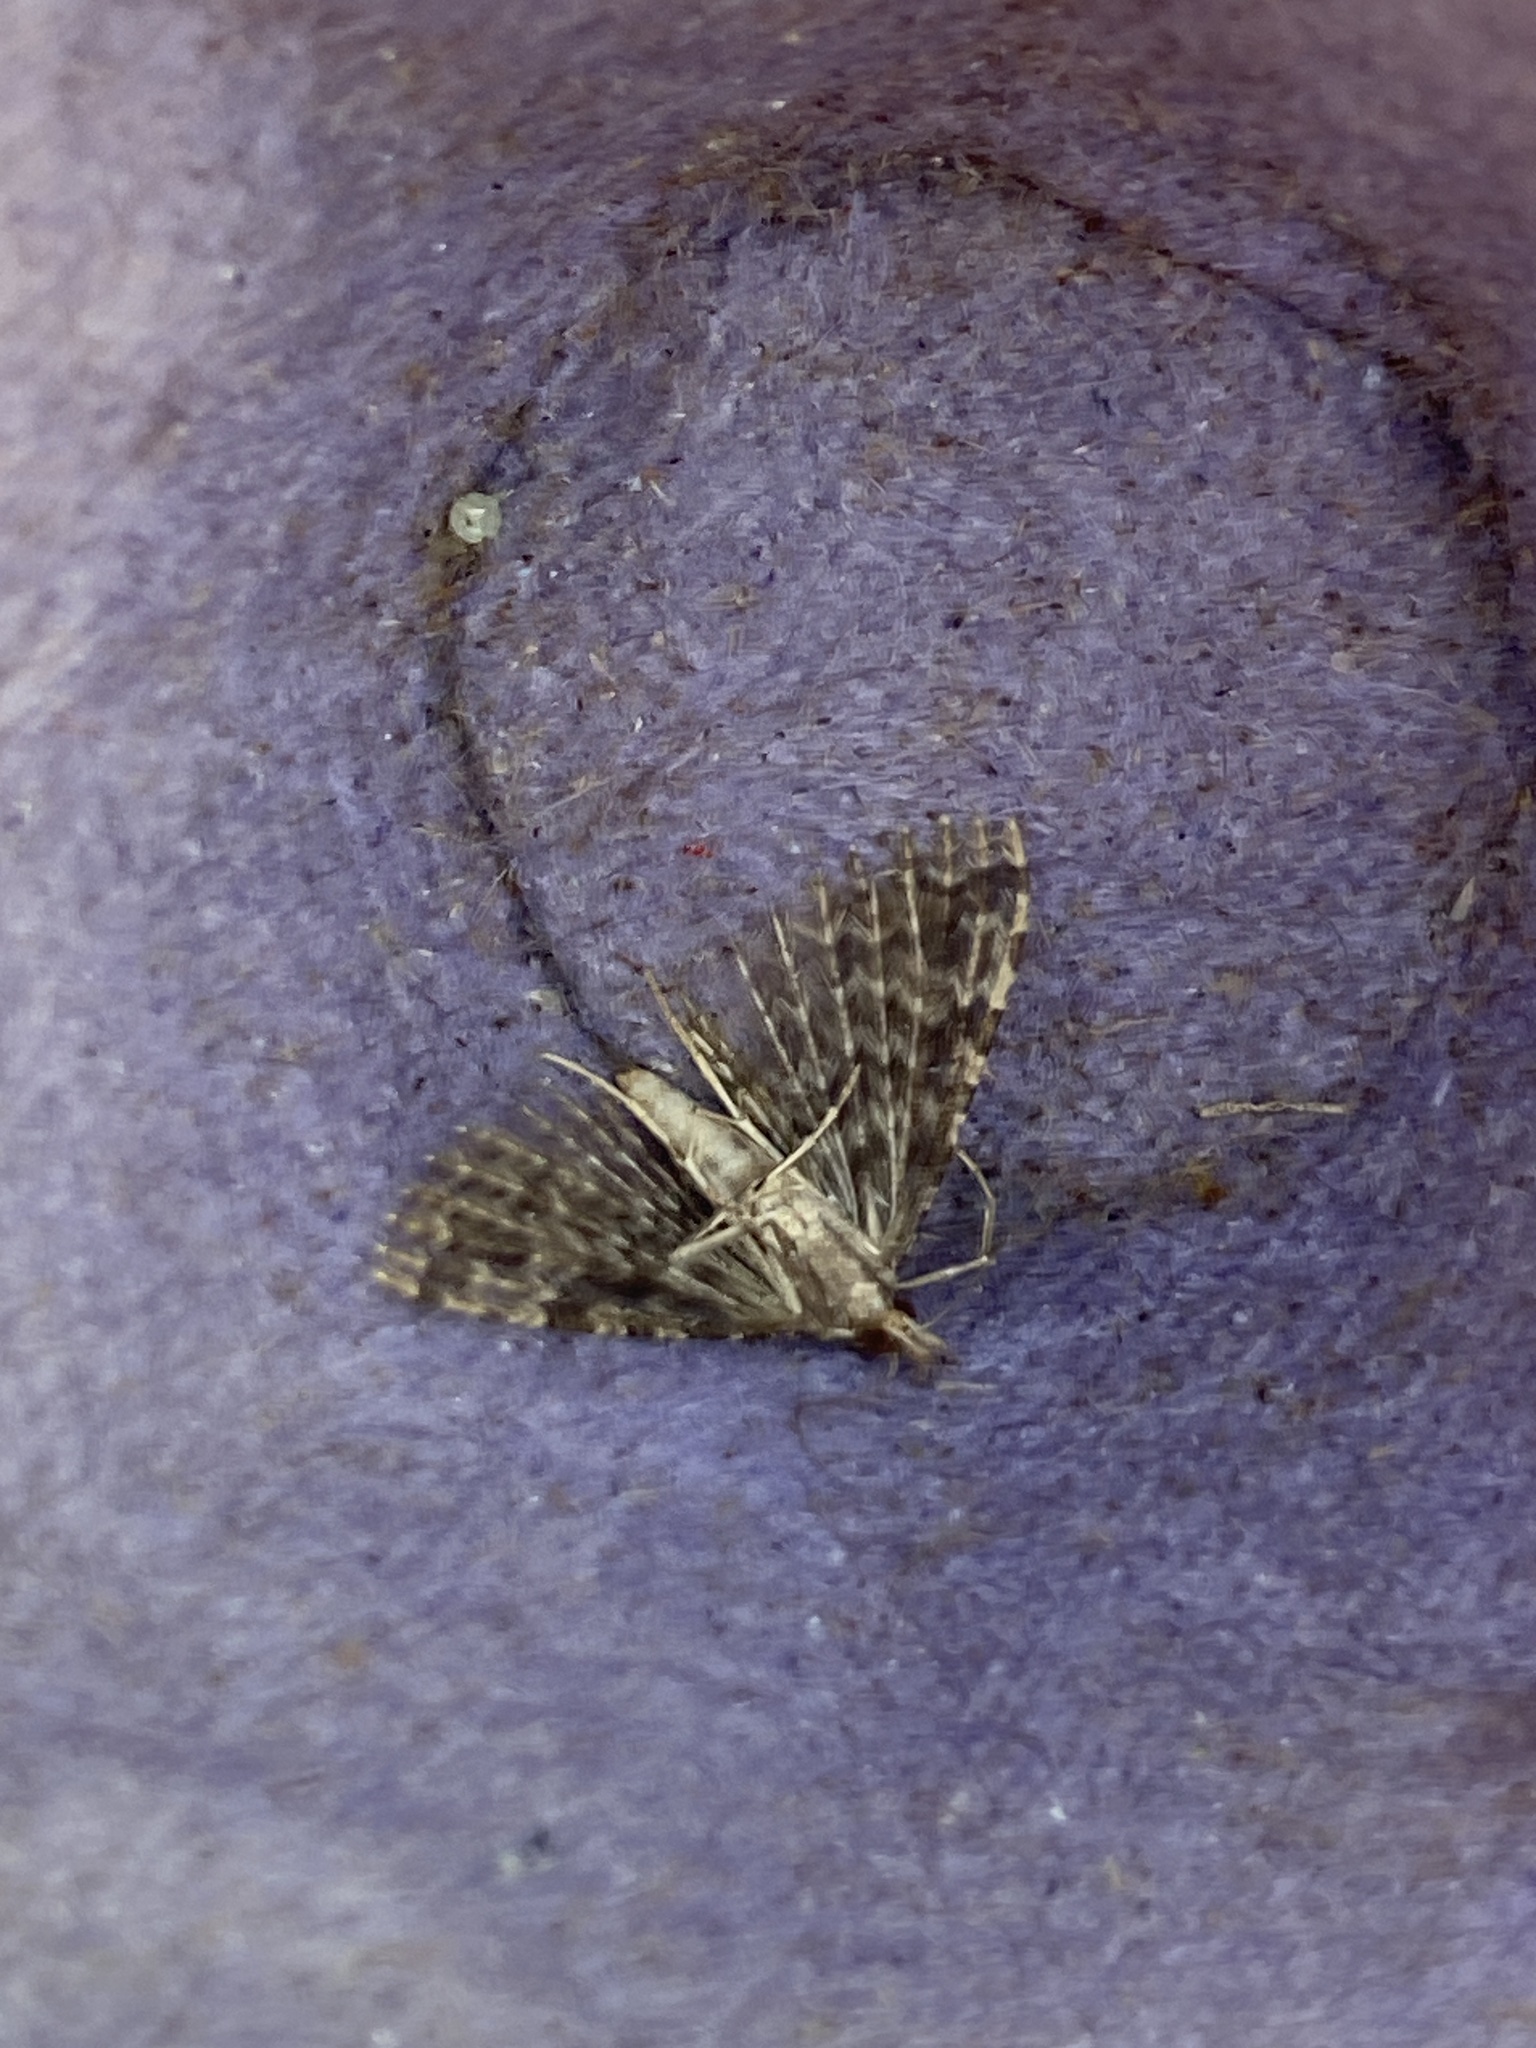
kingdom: Animalia
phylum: Arthropoda
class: Insecta
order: Lepidoptera
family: Alucitidae
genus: Alucita
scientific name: Alucita hexadactyla
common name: Twenty-plume moth
